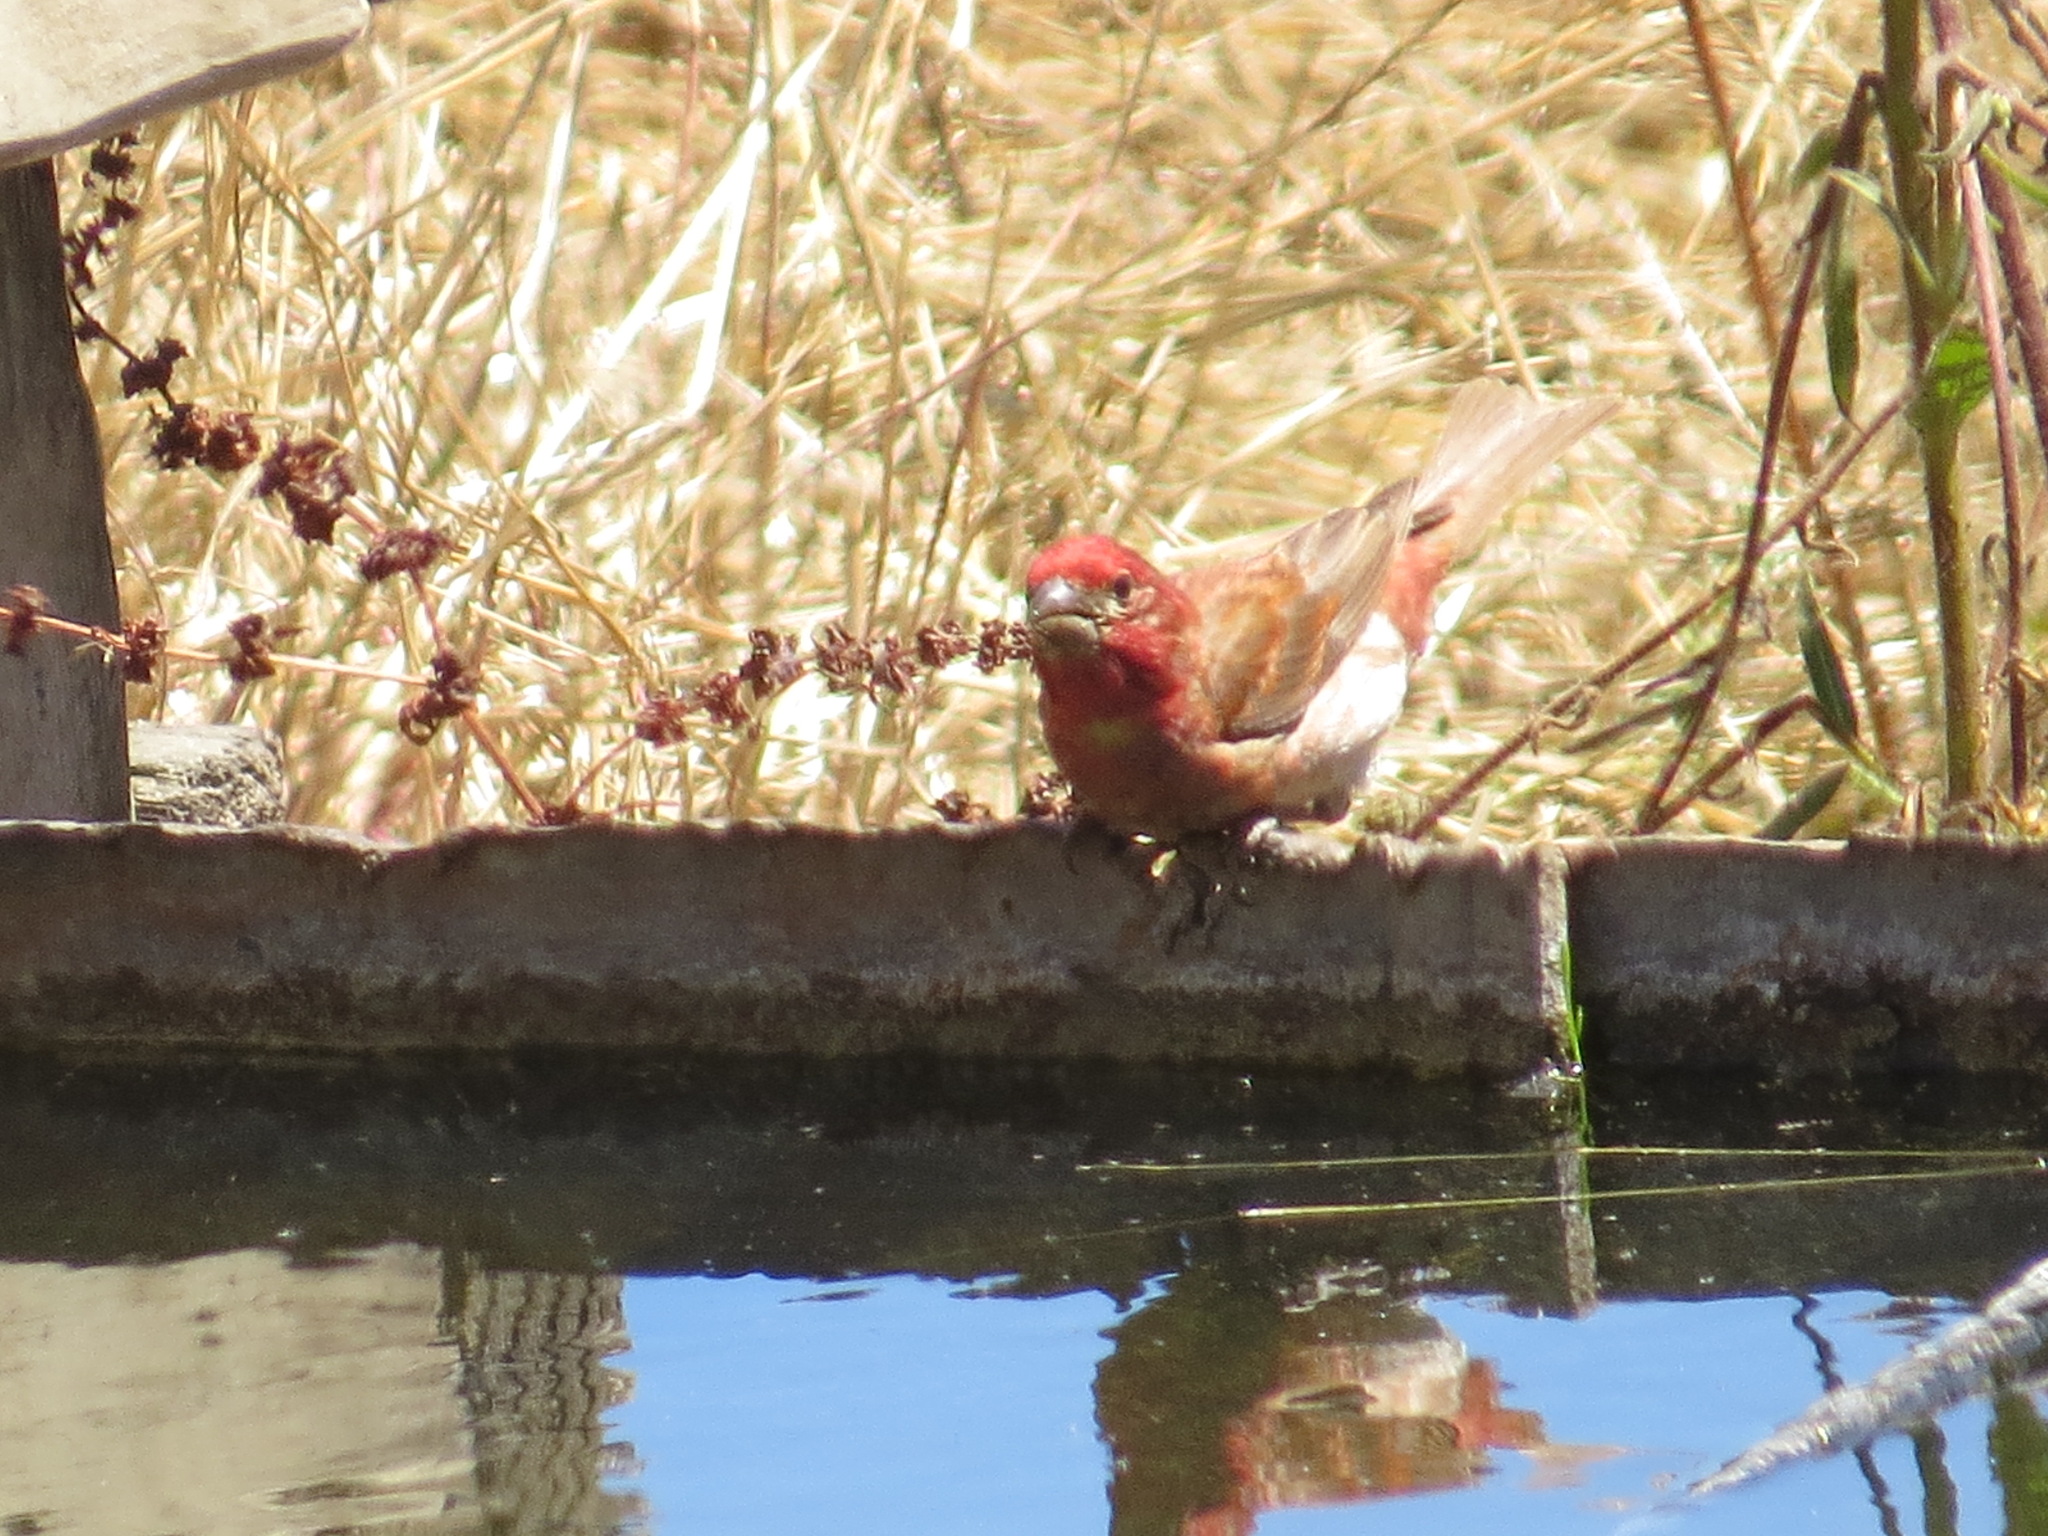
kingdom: Animalia
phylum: Chordata
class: Aves
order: Passeriformes
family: Fringillidae
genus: Haemorhous
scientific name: Haemorhous purpureus
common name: Purple finch
